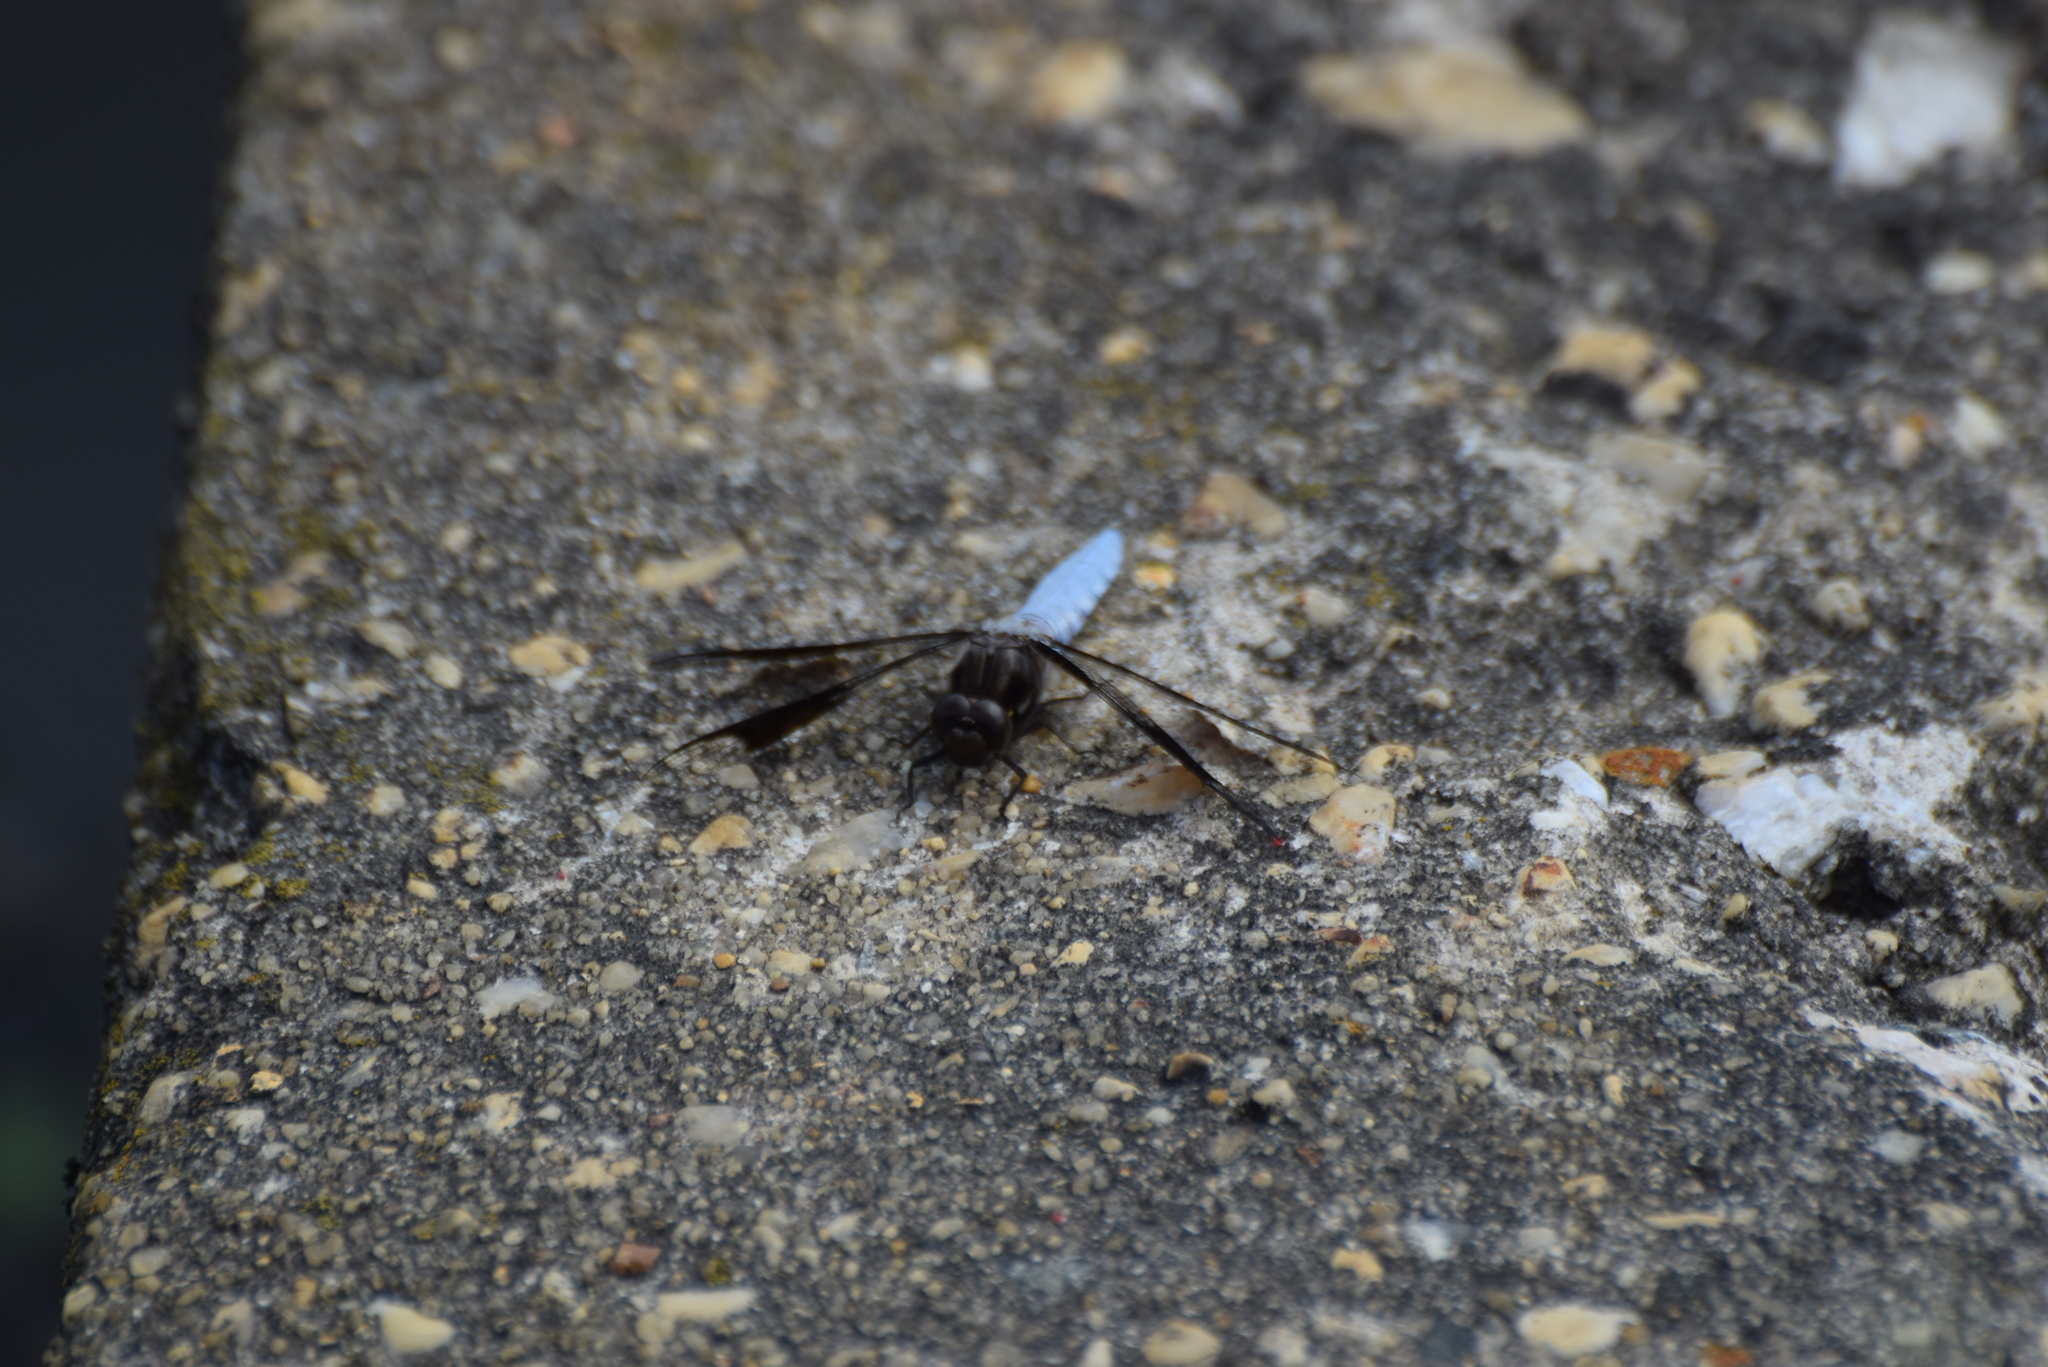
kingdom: Animalia
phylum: Arthropoda
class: Insecta
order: Odonata
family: Libellulidae
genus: Plathemis
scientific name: Plathemis lydia
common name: Common whitetail
